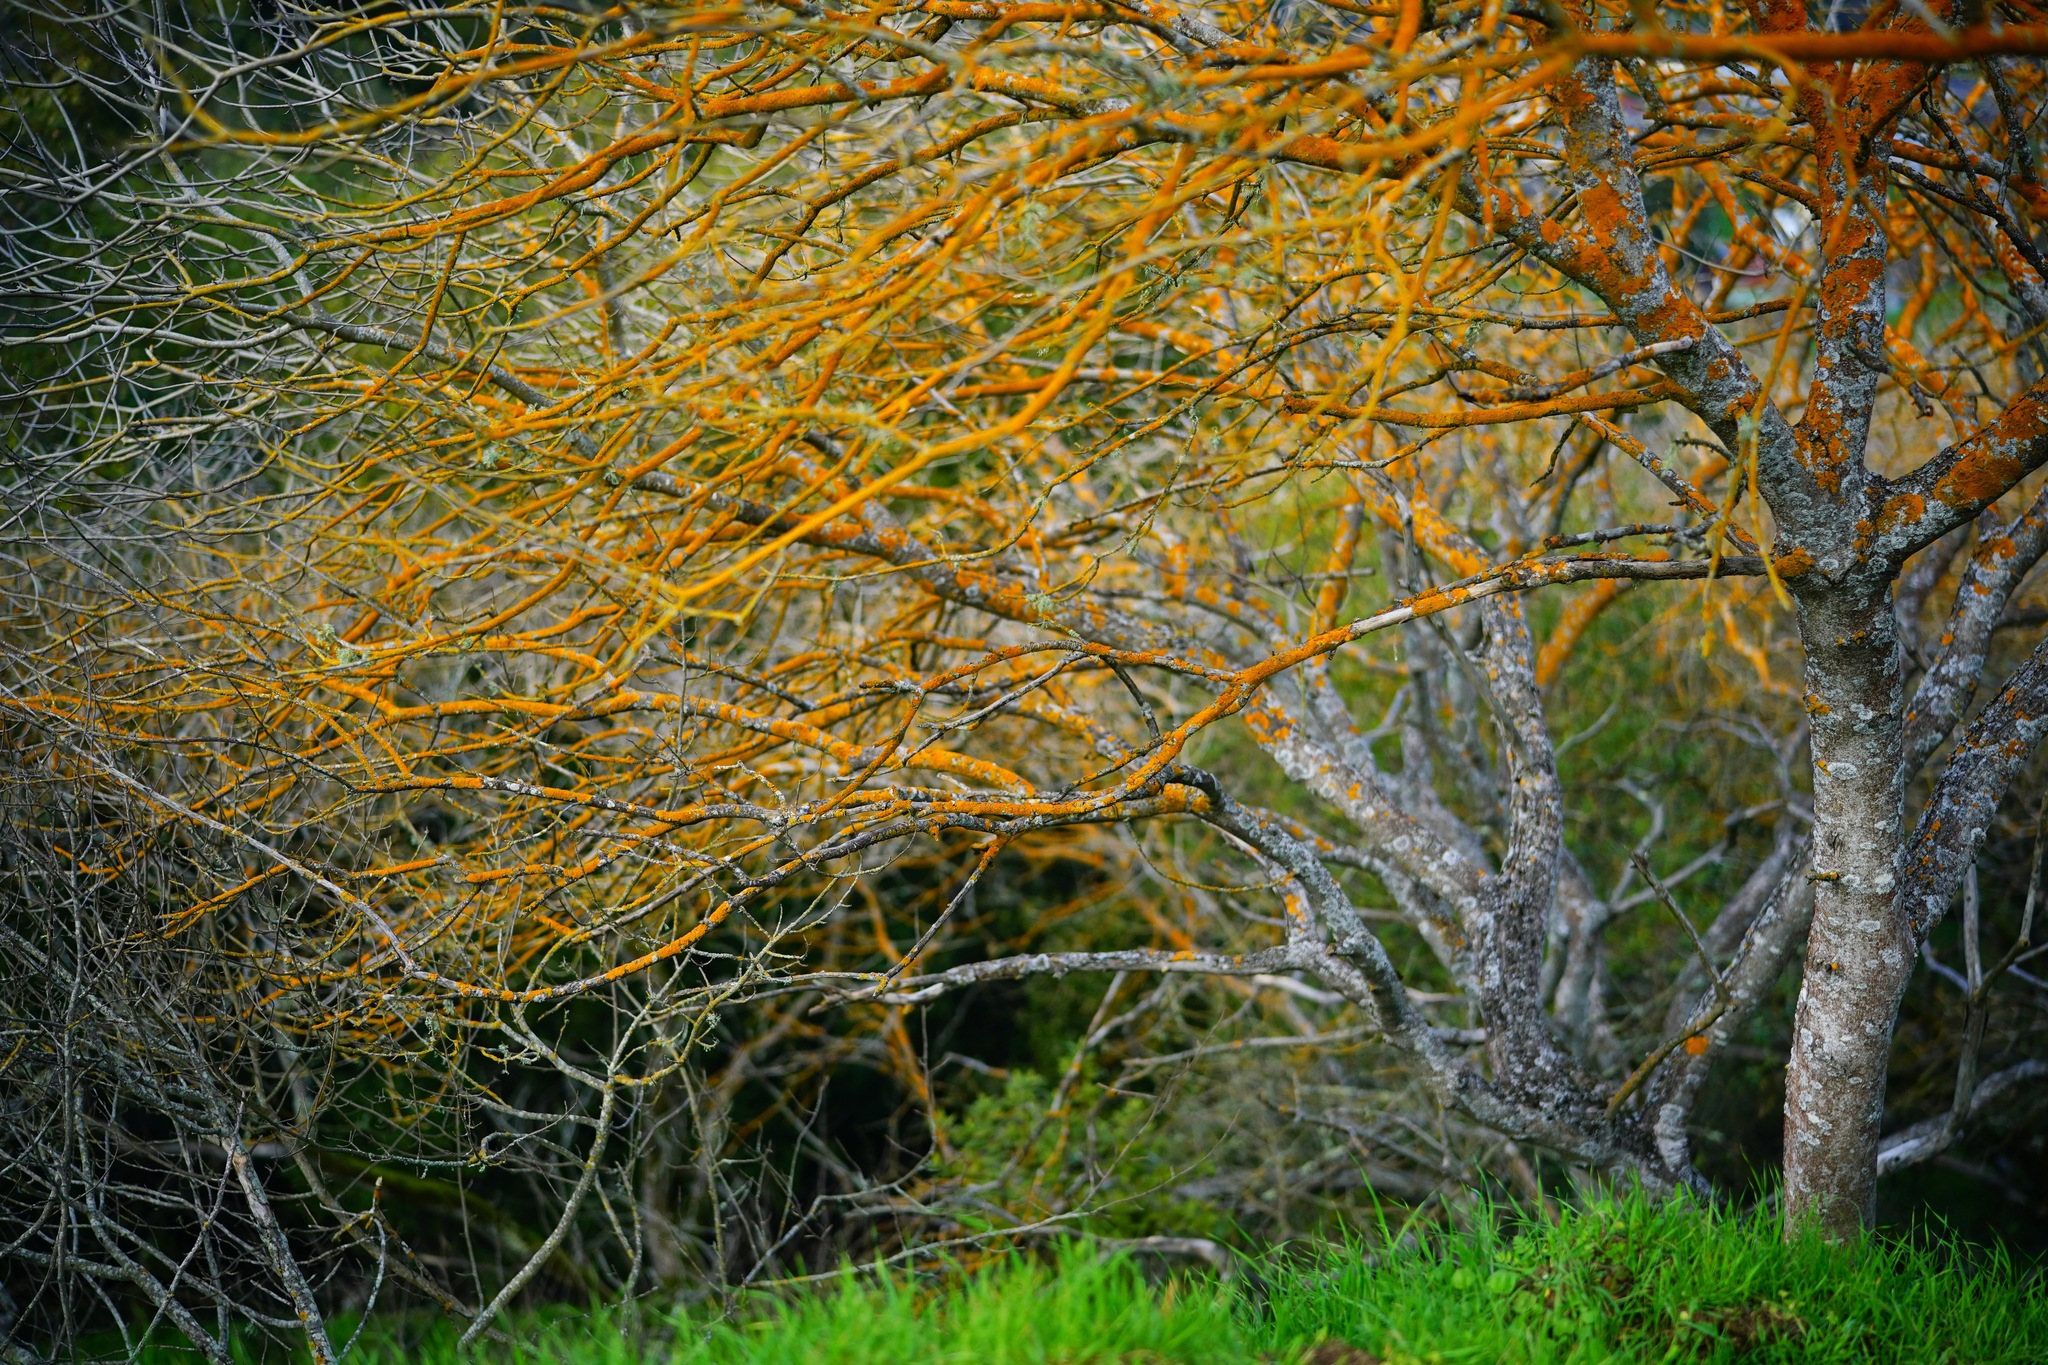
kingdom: Plantae
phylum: Tracheophyta
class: Magnoliopsida
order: Sapindales
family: Sapindaceae
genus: Aesculus
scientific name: Aesculus californica
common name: California buckeye
